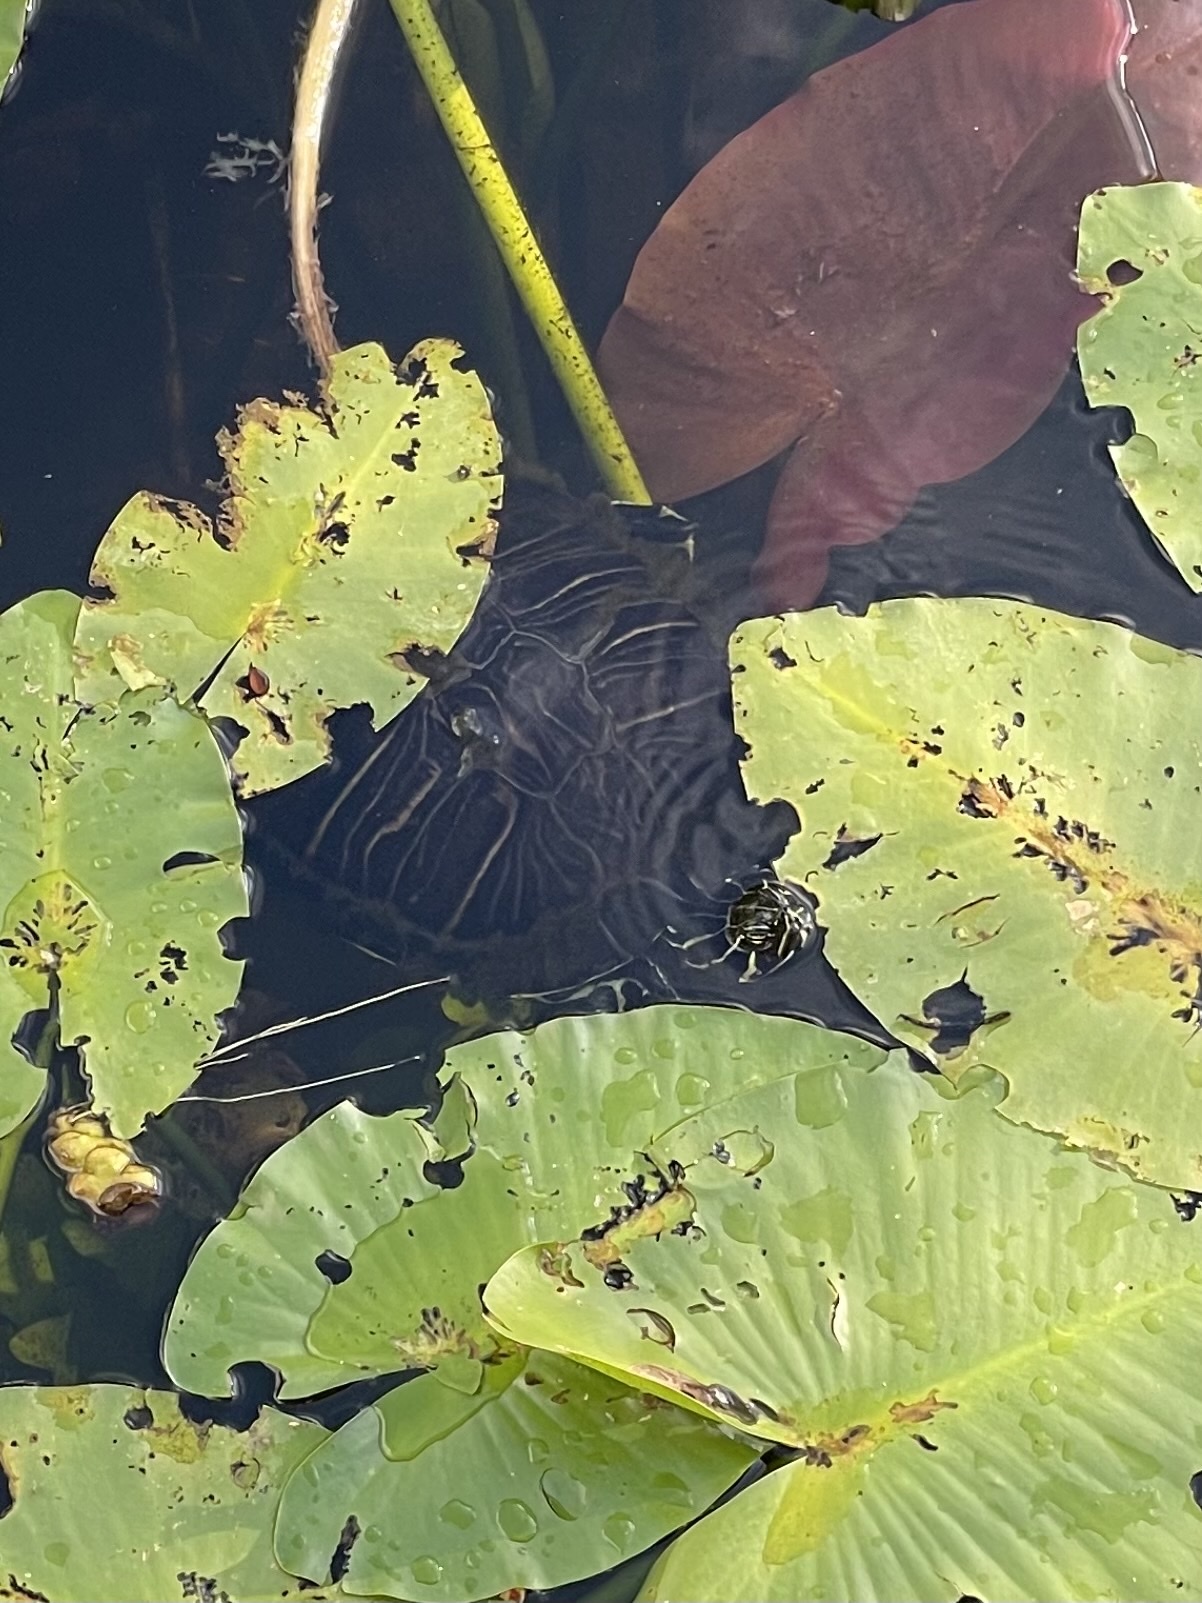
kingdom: Animalia
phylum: Chordata
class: Testudines
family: Emydidae
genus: Pseudemys
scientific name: Pseudemys peninsularis
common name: Peninsula cooter
